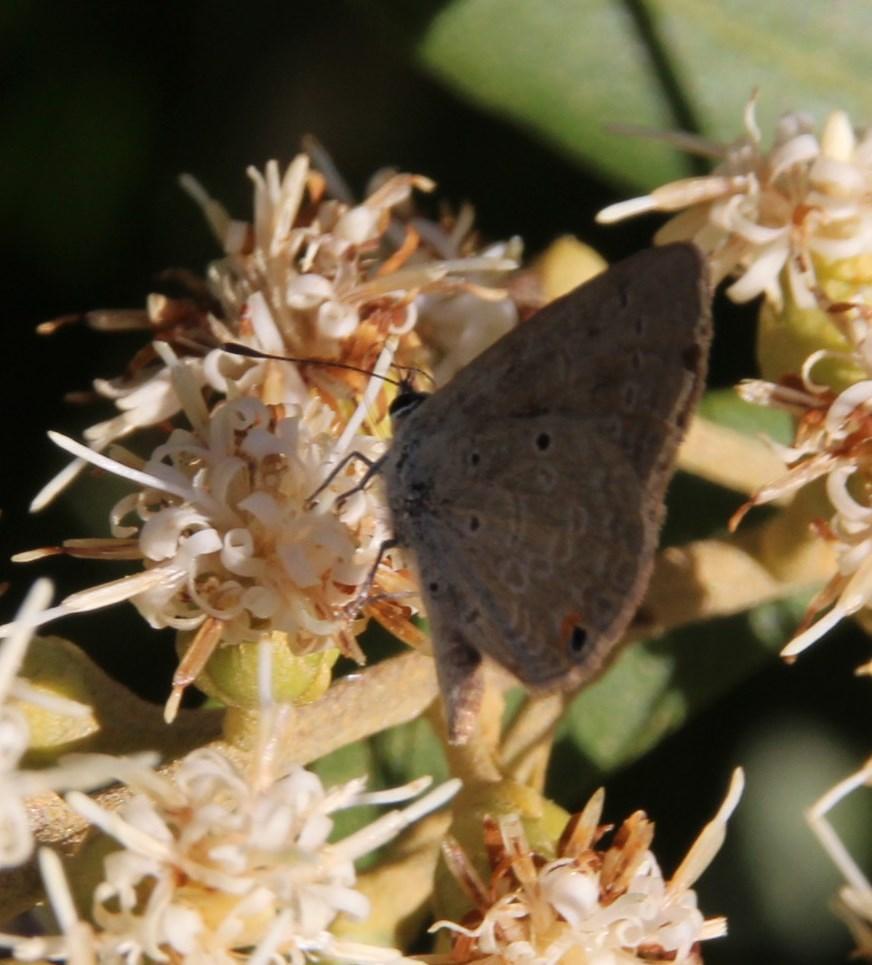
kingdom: Animalia
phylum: Arthropoda
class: Insecta
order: Lepidoptera
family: Lycaenidae
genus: Eicochrysops
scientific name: Eicochrysops messapus
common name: Cupreous blue
